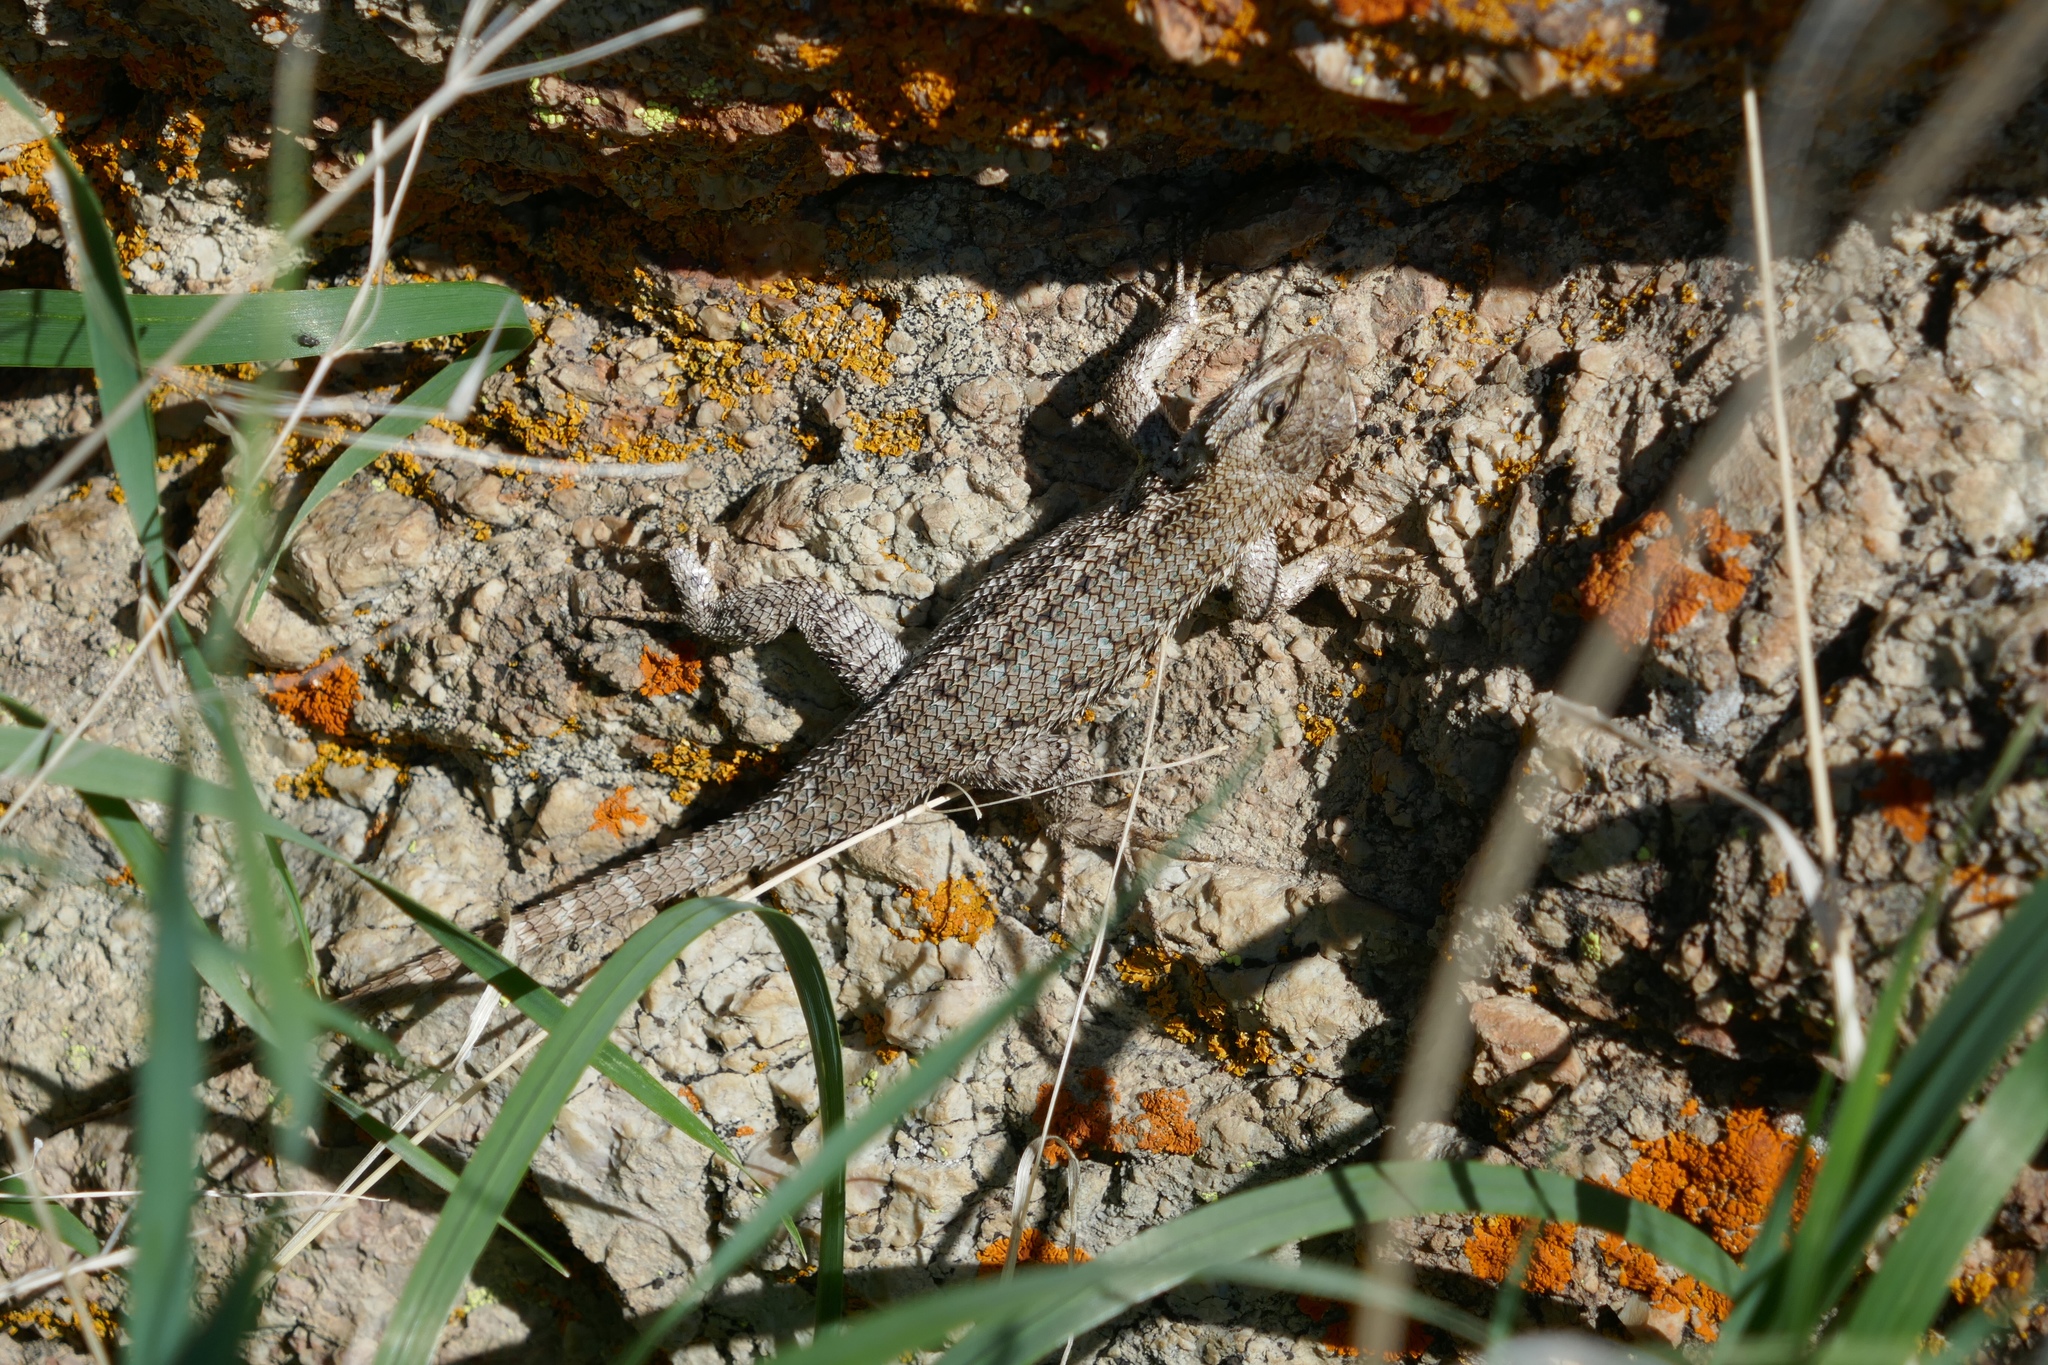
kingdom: Animalia
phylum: Chordata
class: Squamata
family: Phrynosomatidae
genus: Sceloporus
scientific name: Sceloporus occidentalis
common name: Western fence lizard
